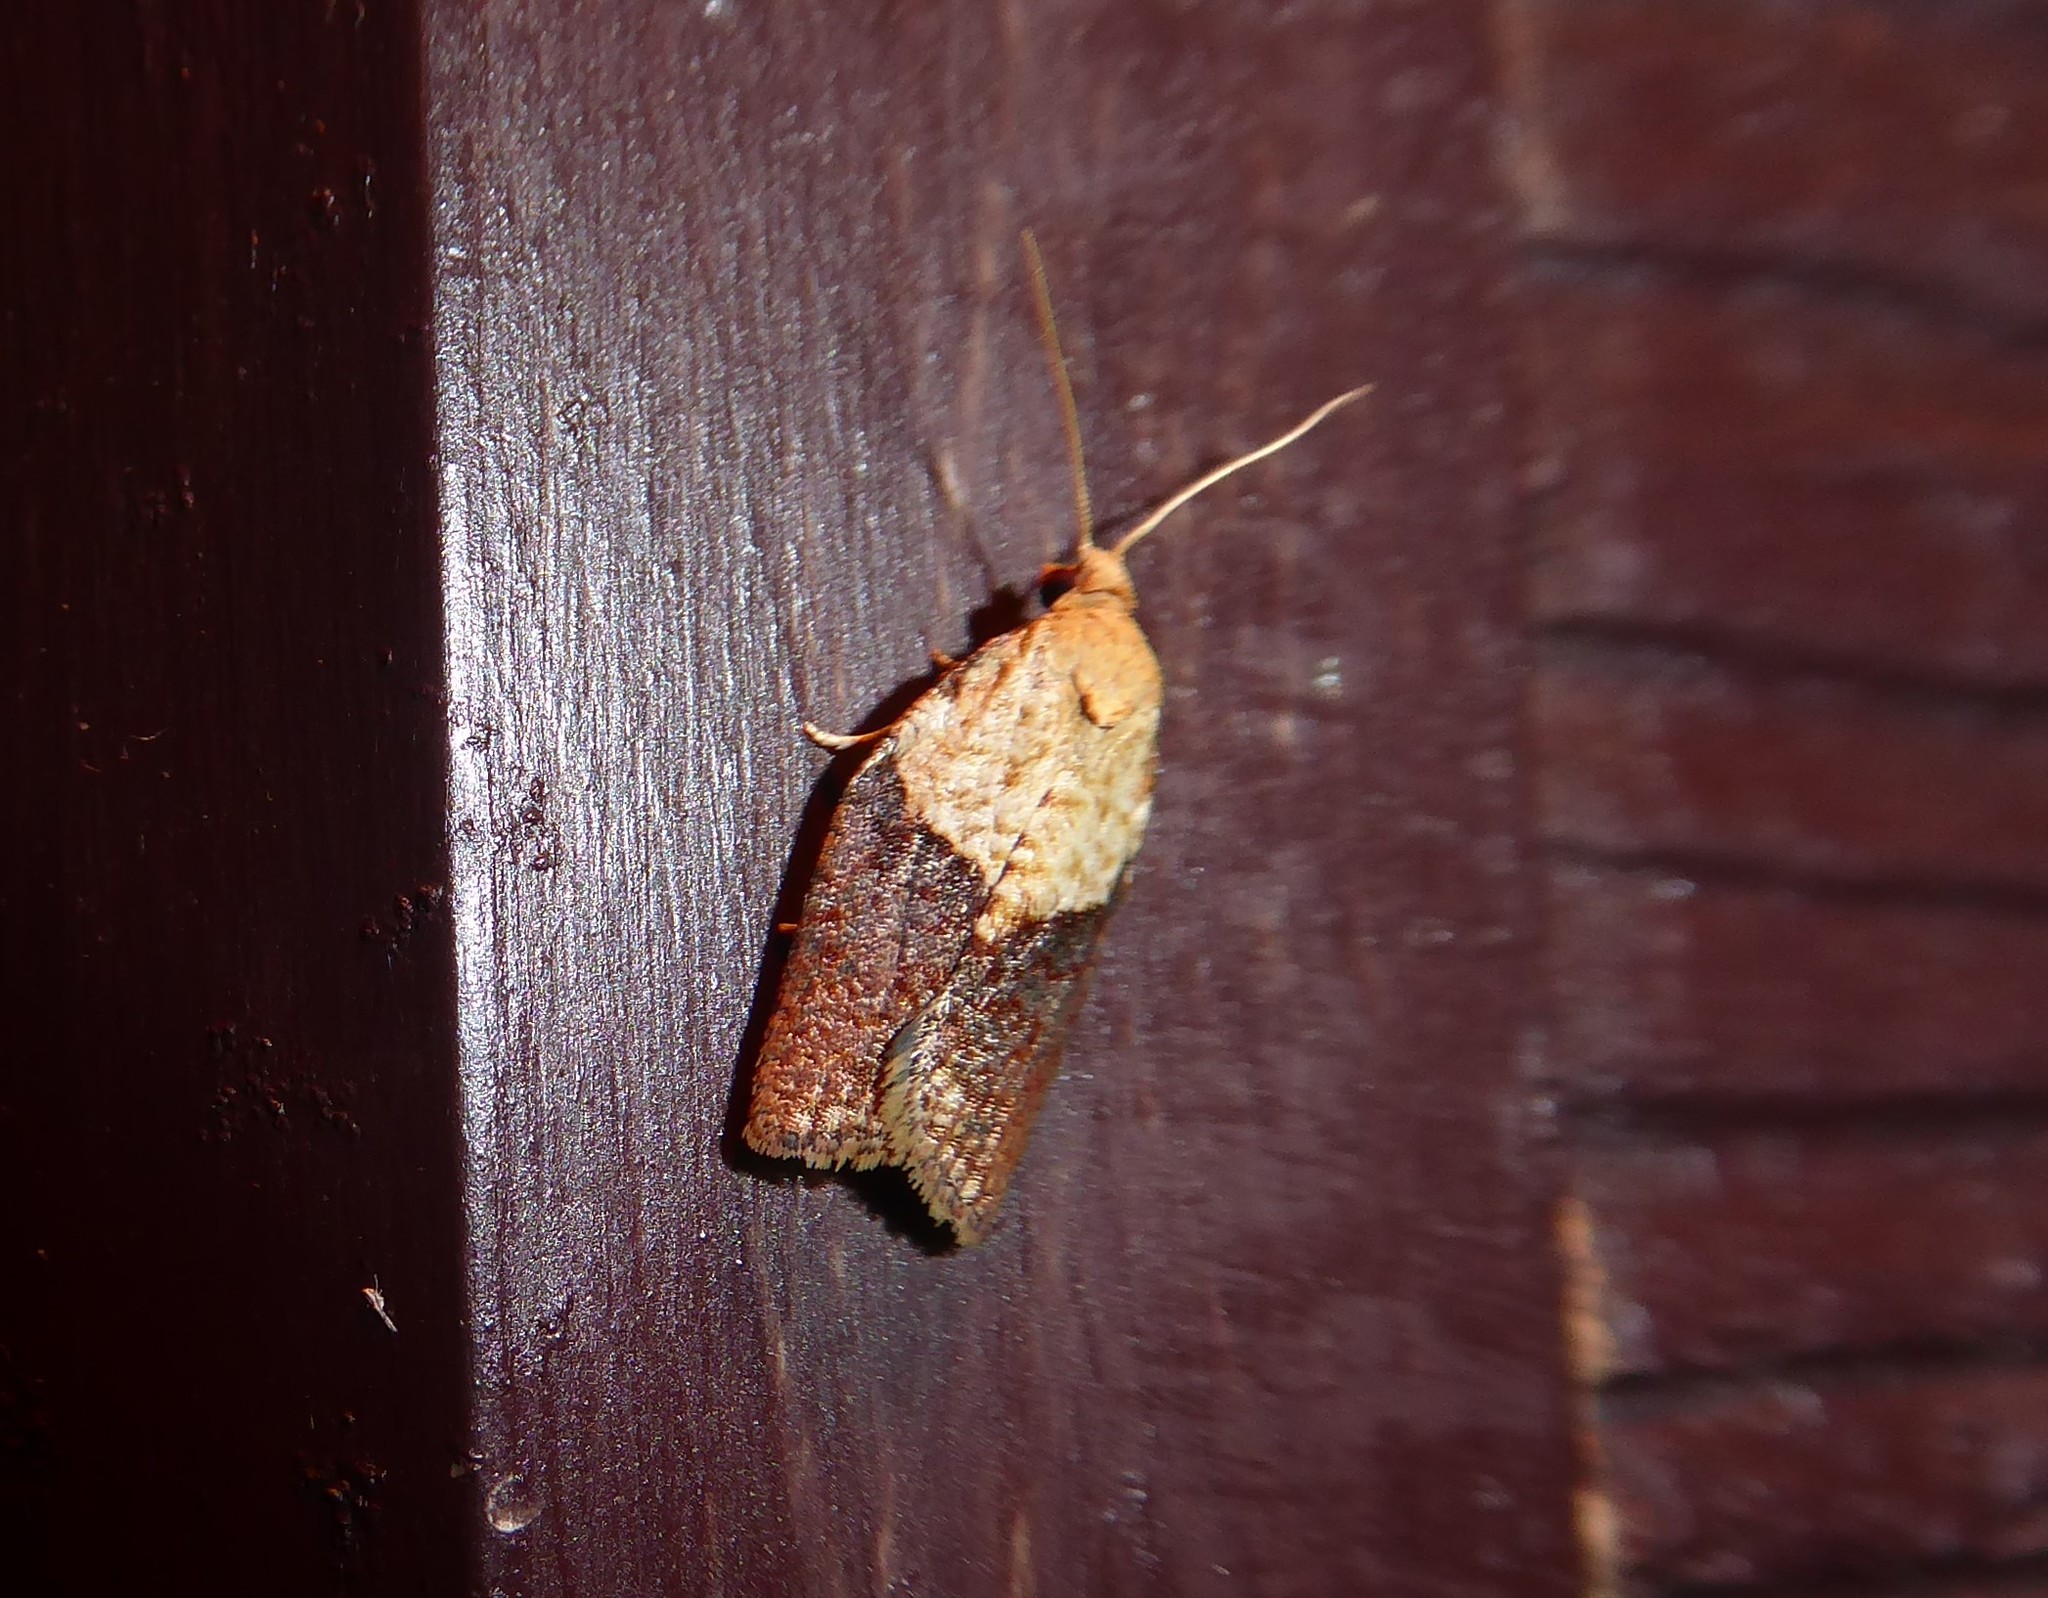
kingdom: Animalia
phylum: Arthropoda
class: Insecta
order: Lepidoptera
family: Tortricidae
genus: Epiphyas
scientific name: Epiphyas postvittana
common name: Light brown apple moth
